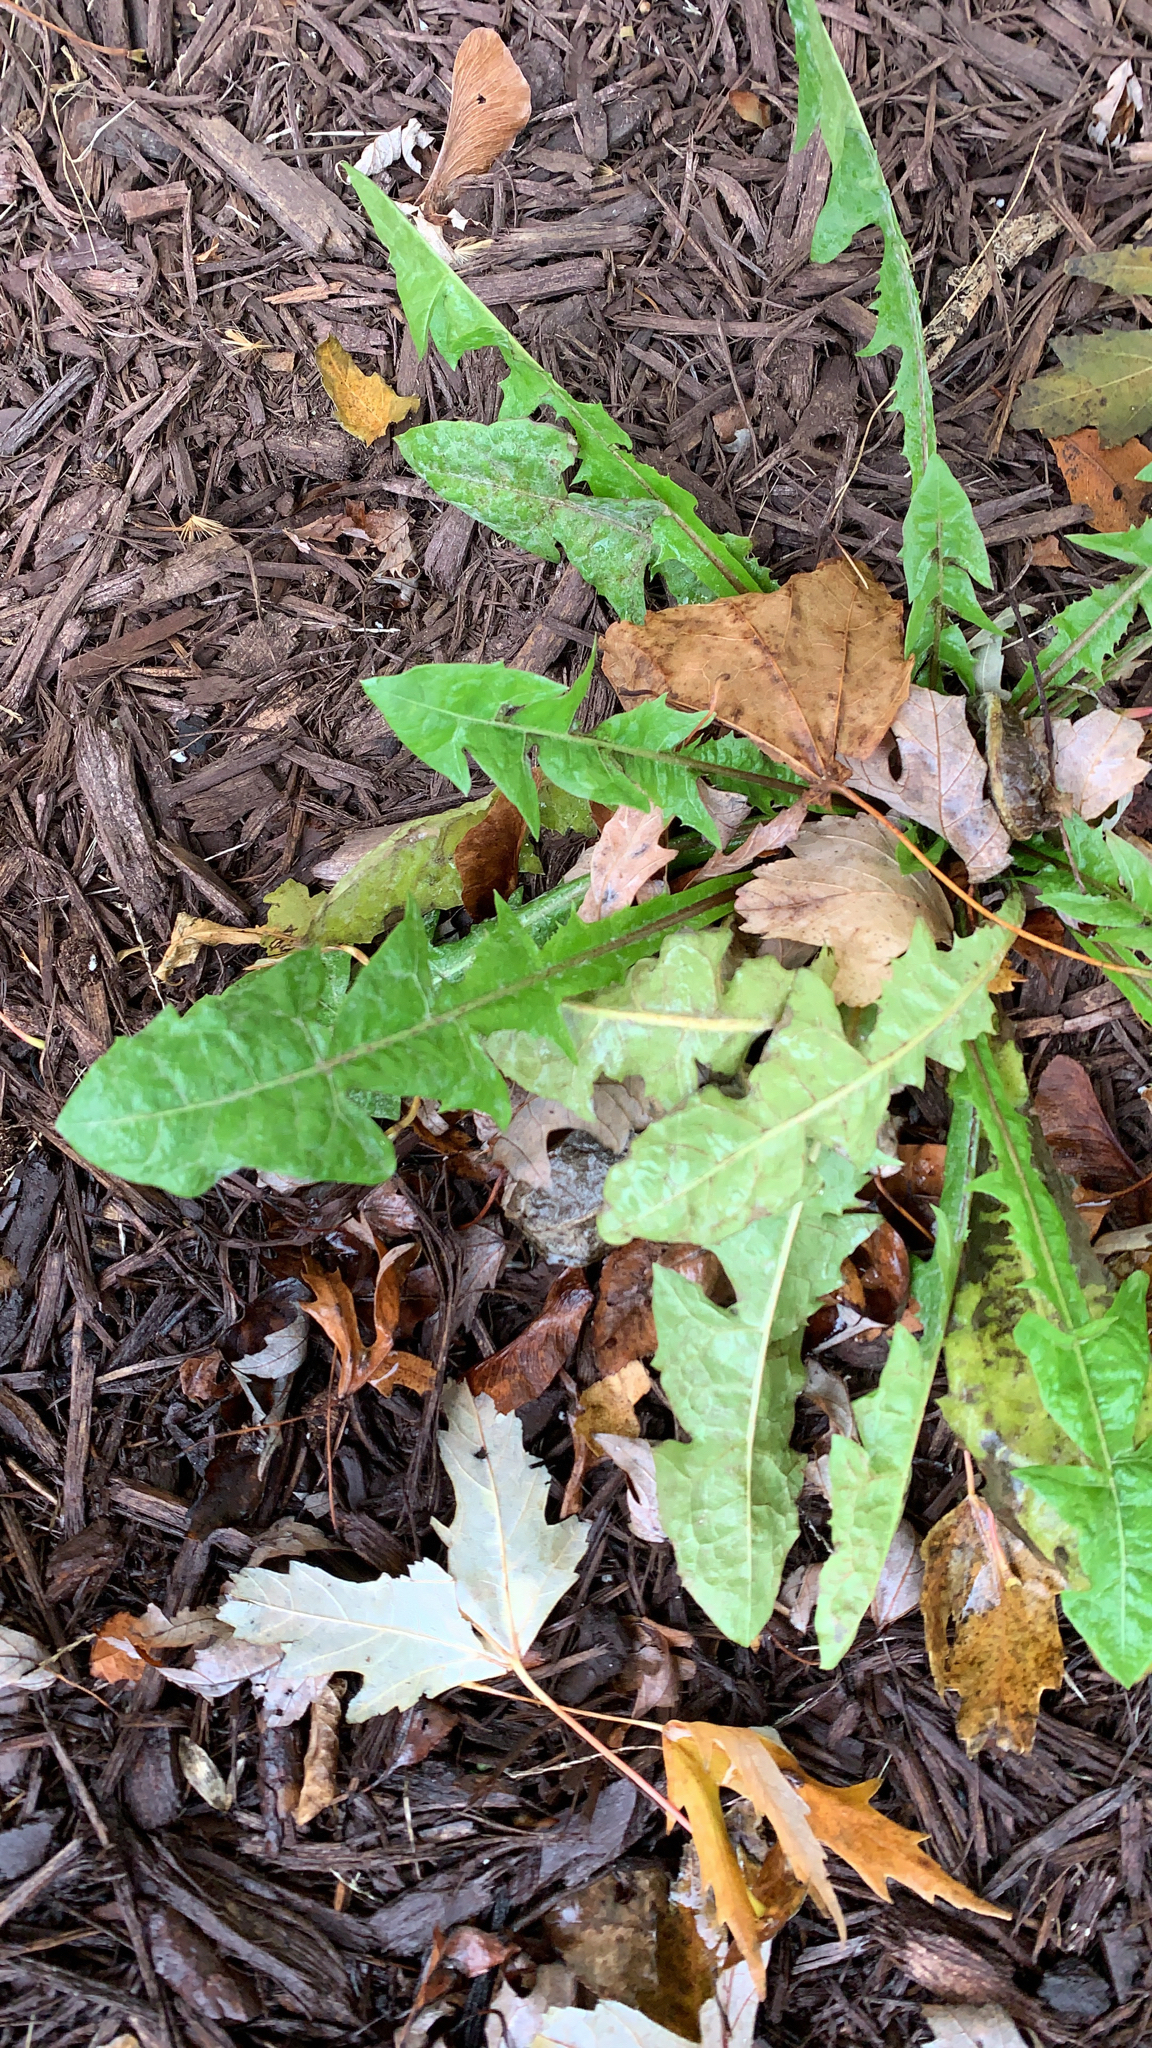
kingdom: Plantae
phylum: Tracheophyta
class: Magnoliopsida
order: Asterales
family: Asteraceae
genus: Taraxacum
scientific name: Taraxacum officinale
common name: Common dandelion
